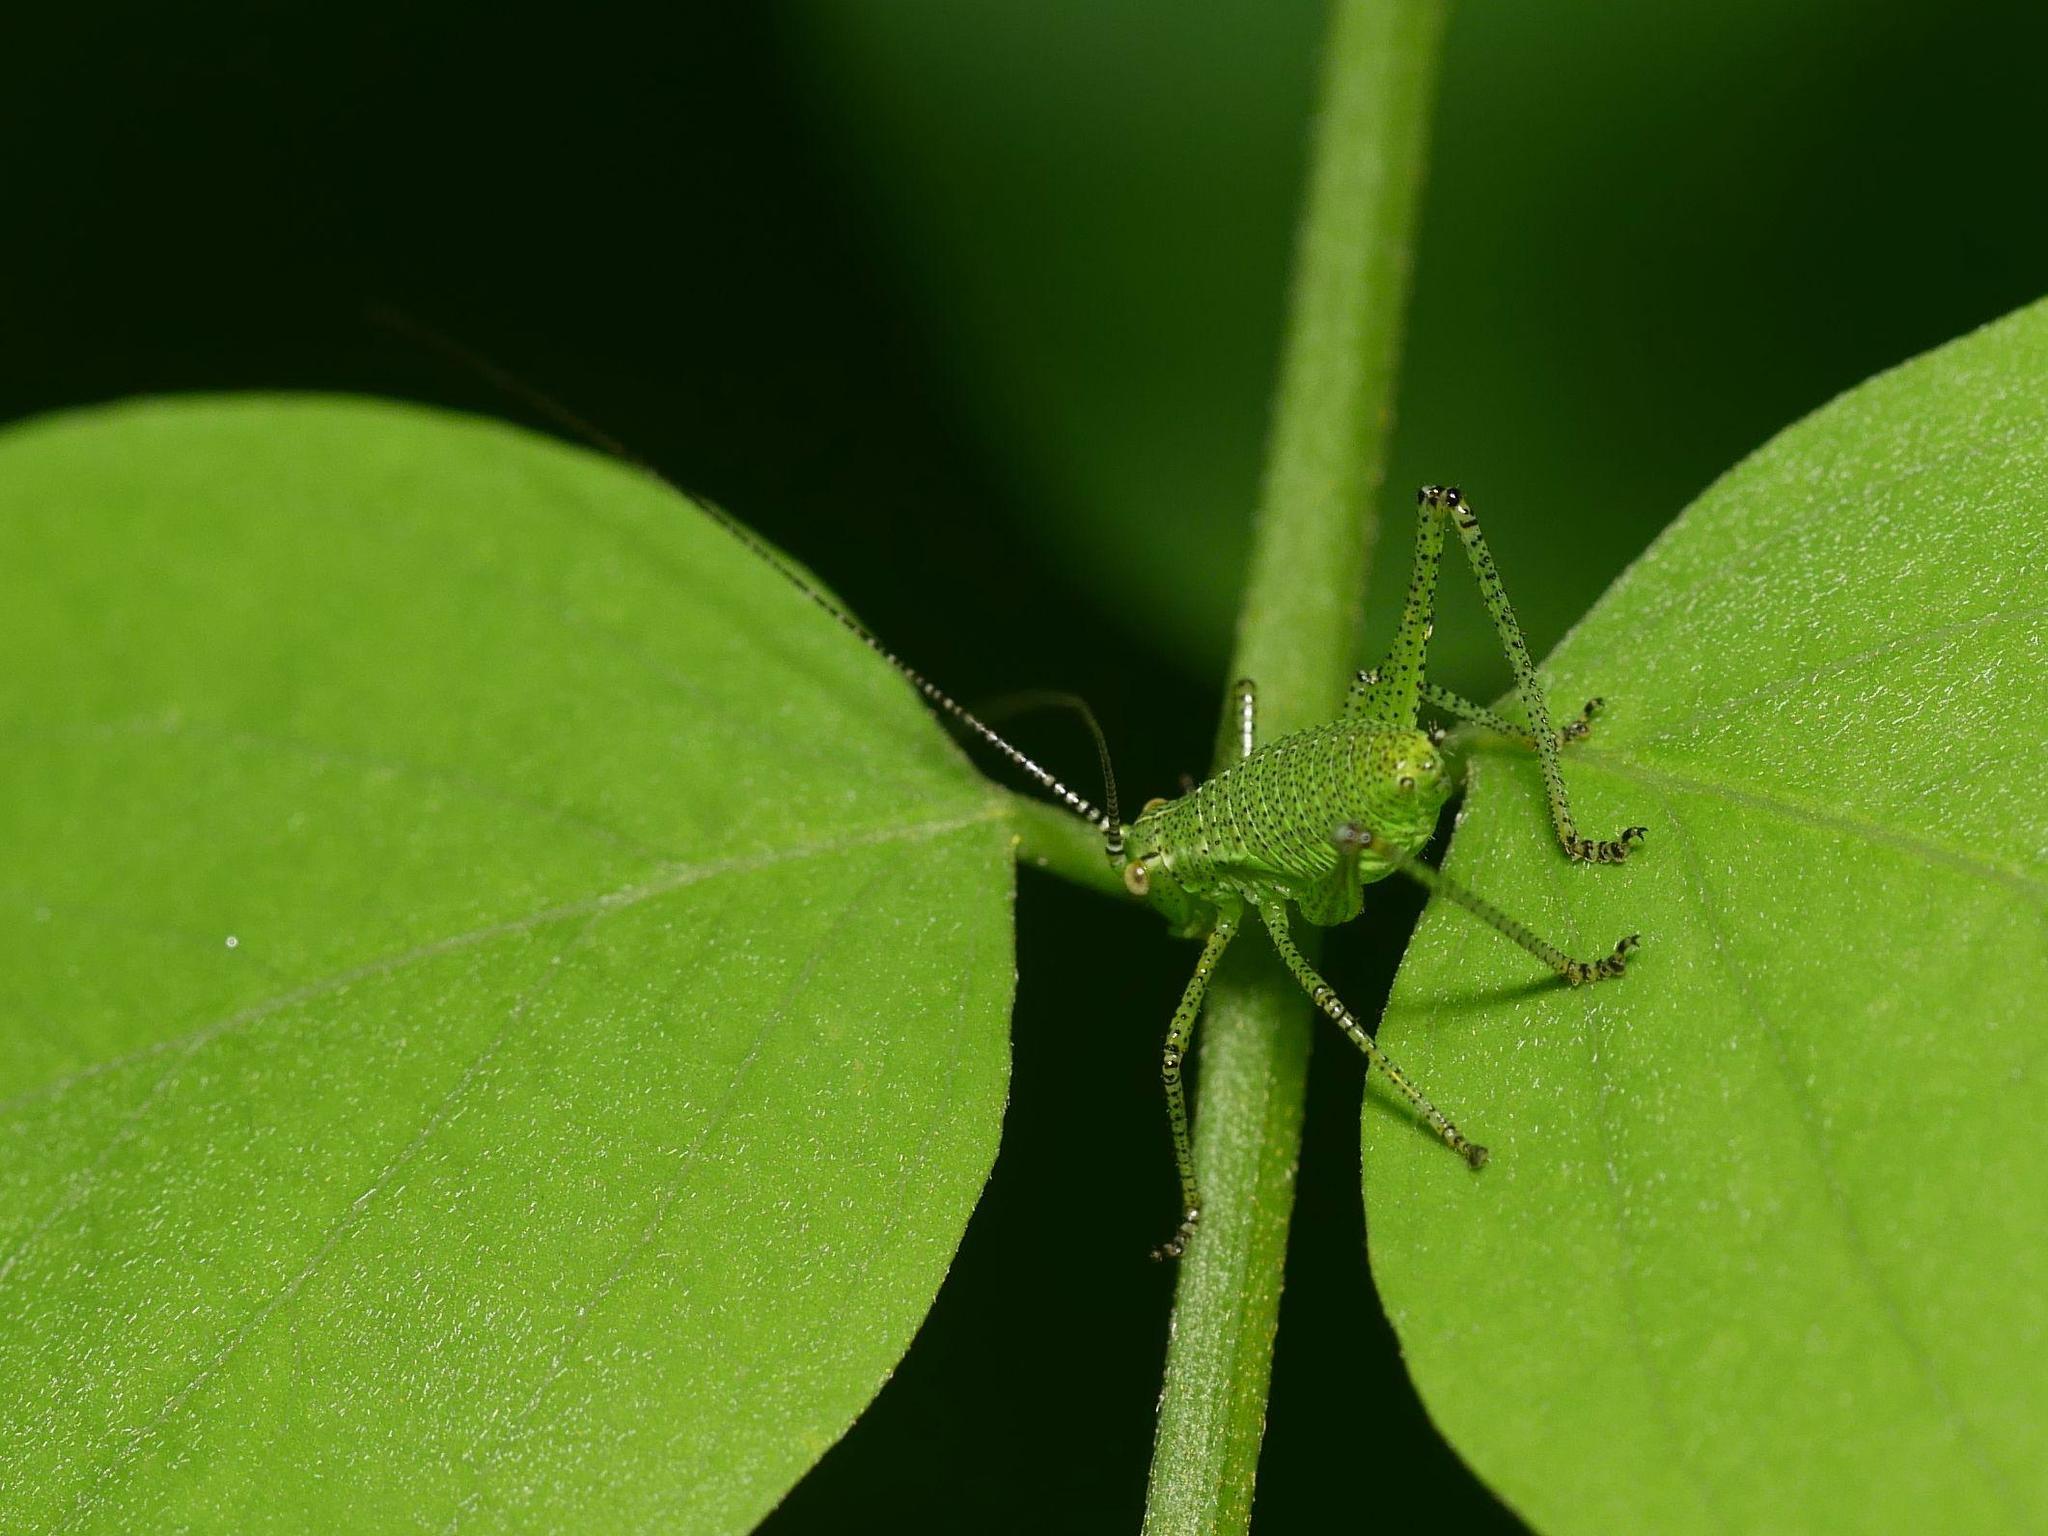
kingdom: Animalia
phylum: Arthropoda
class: Insecta
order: Orthoptera
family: Tettigoniidae
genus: Leptophyes
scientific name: Leptophyes punctatissima
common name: Speckled bush-cricket
